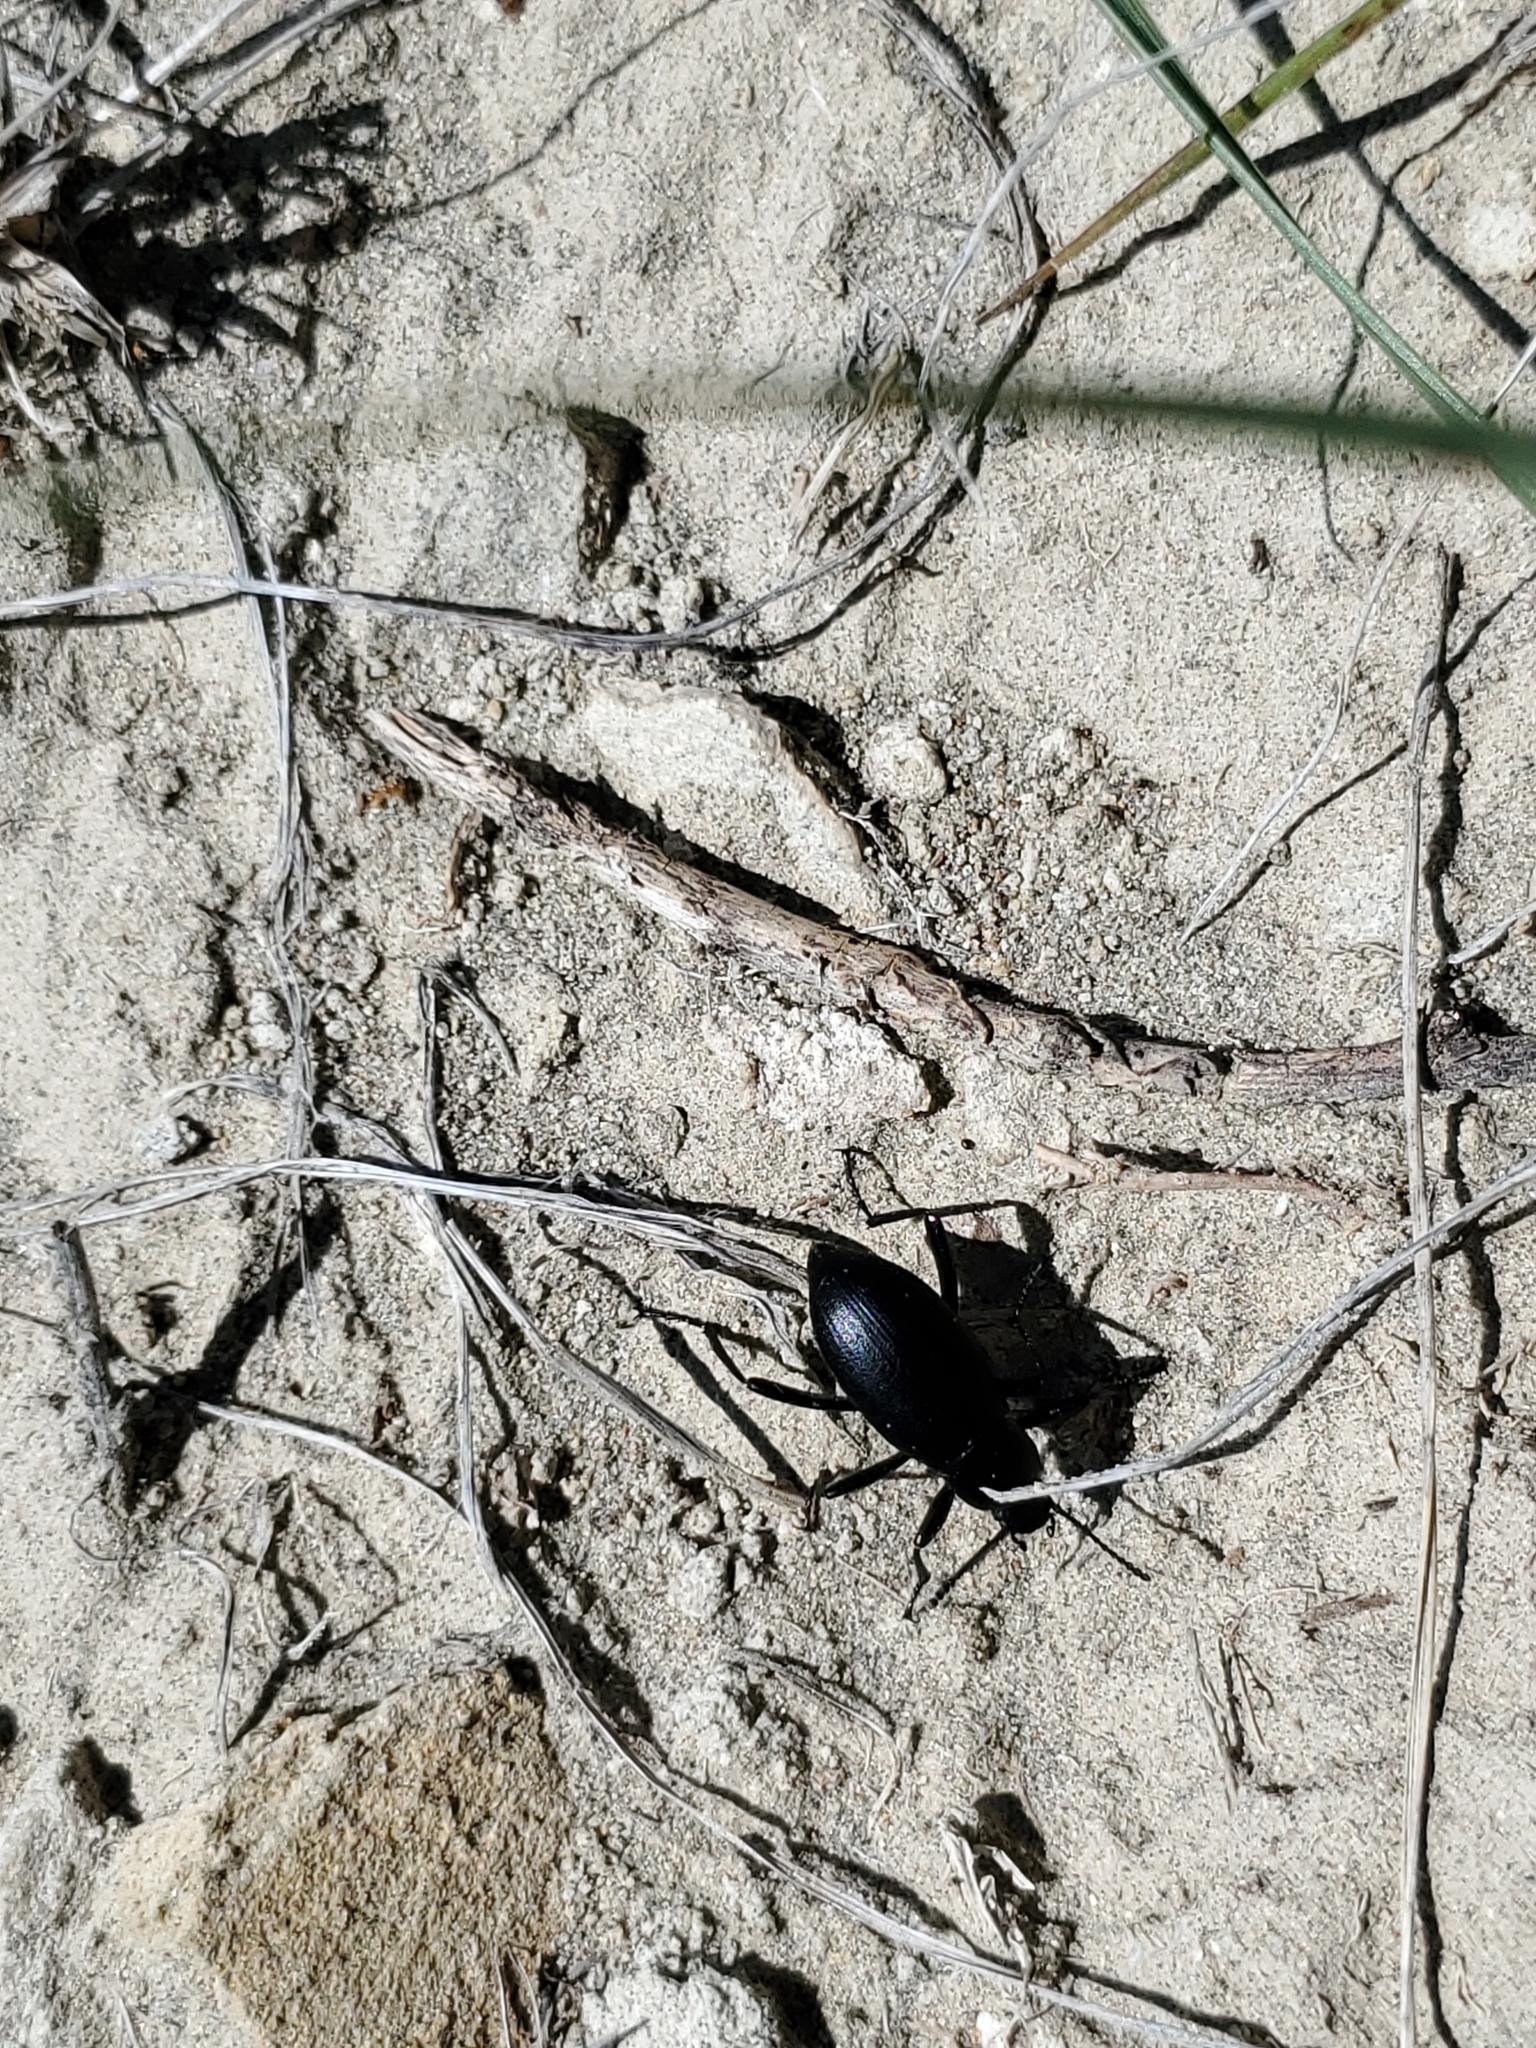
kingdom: Animalia
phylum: Arthropoda
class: Insecta
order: Coleoptera
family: Tenebrionidae
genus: Eleodes
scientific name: Eleodes extricata
